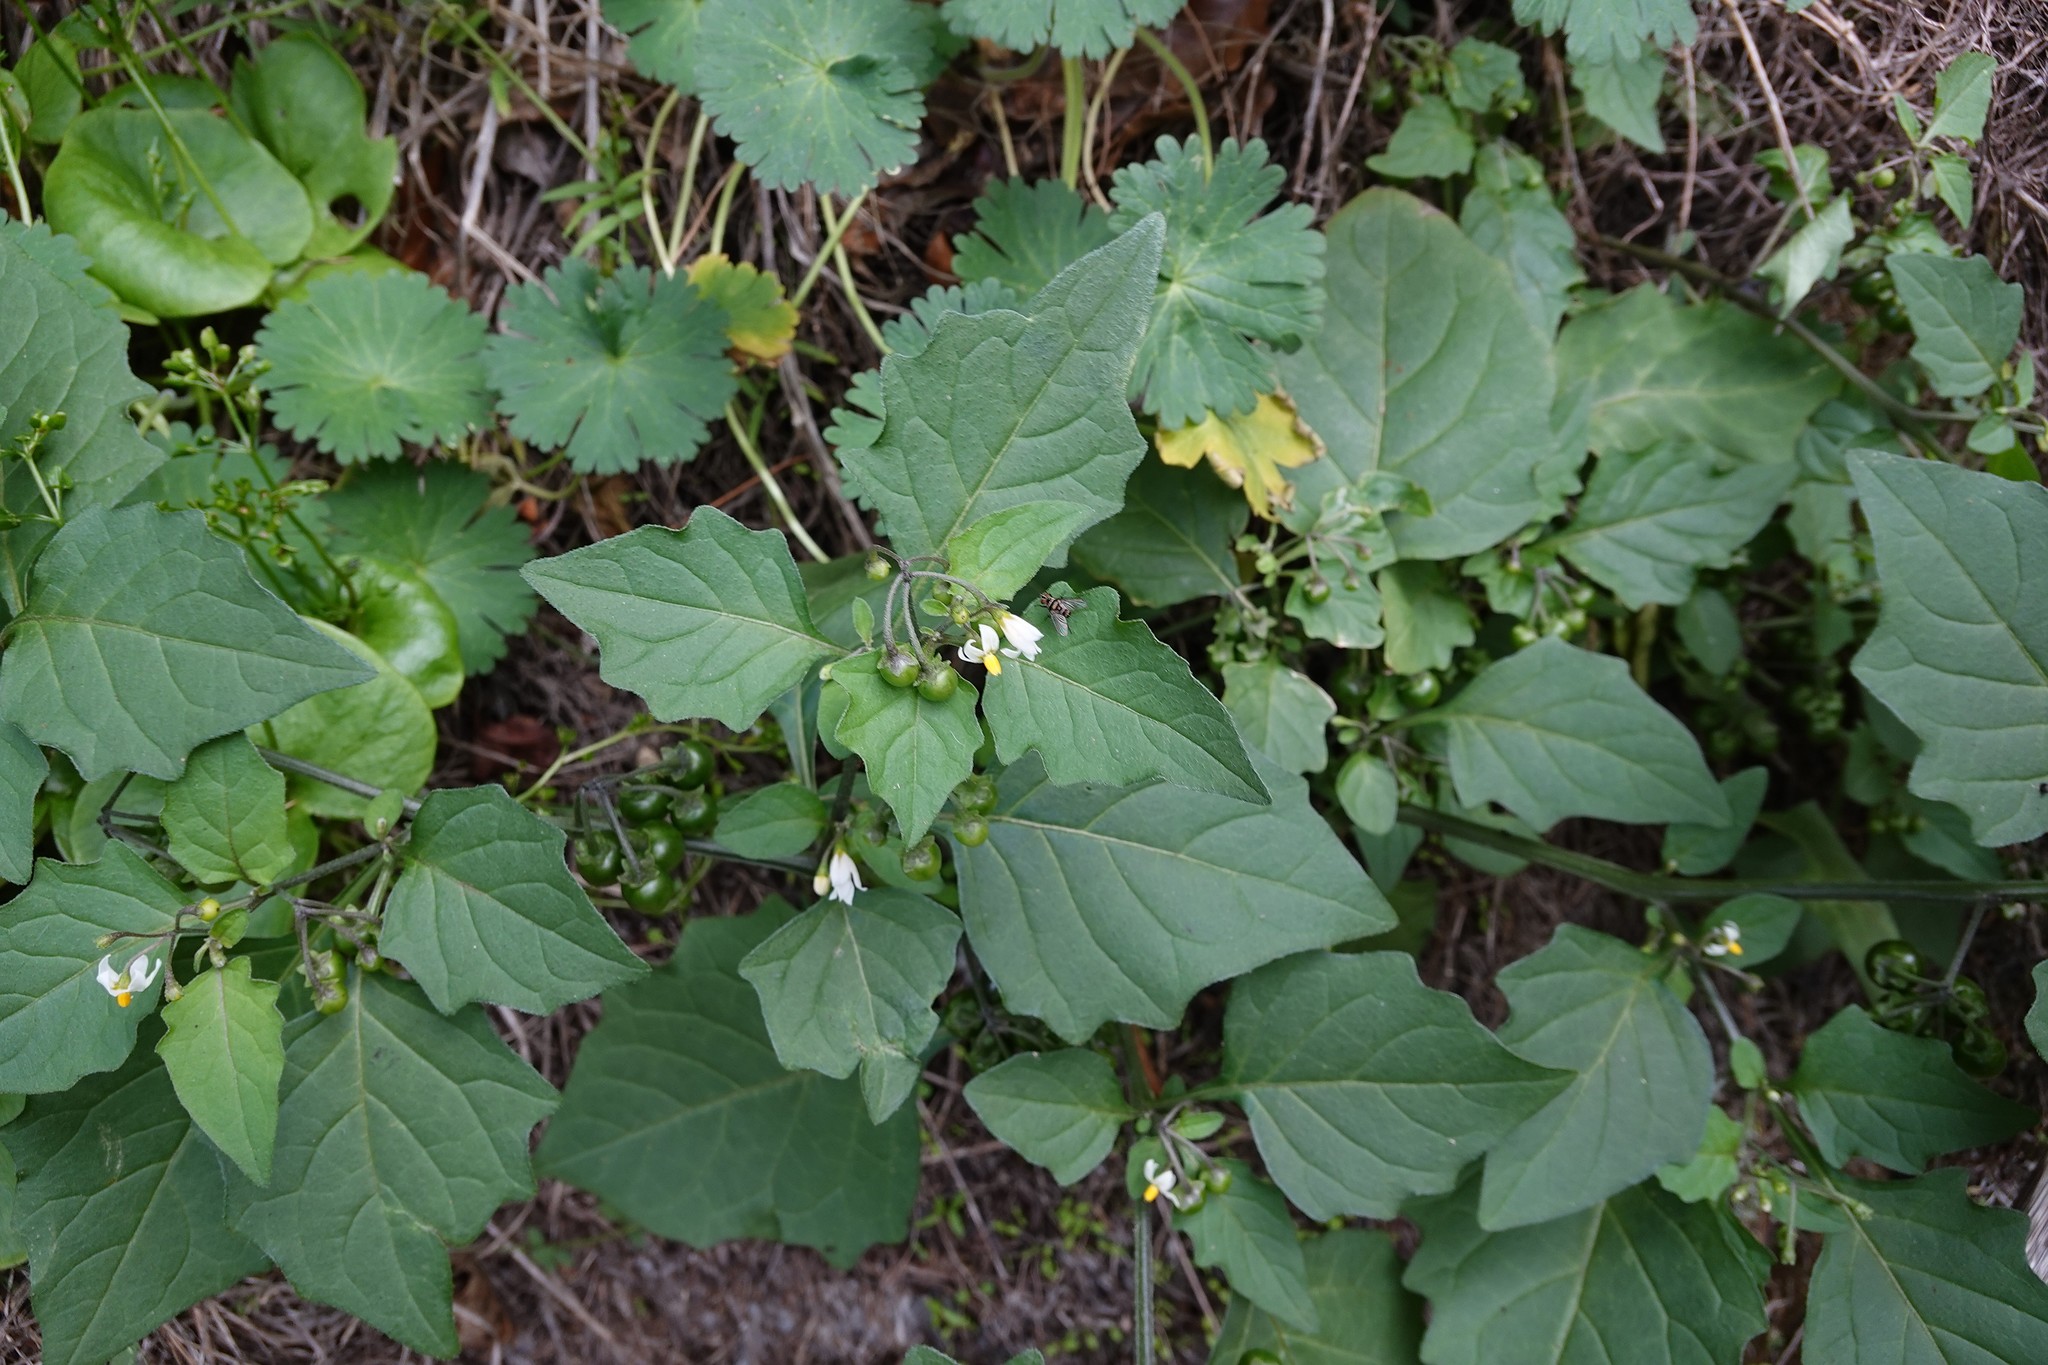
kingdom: Animalia
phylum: Arthropoda
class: Insecta
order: Diptera
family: Tachinidae
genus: Trigonospila
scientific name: Trigonospila brevifacies
